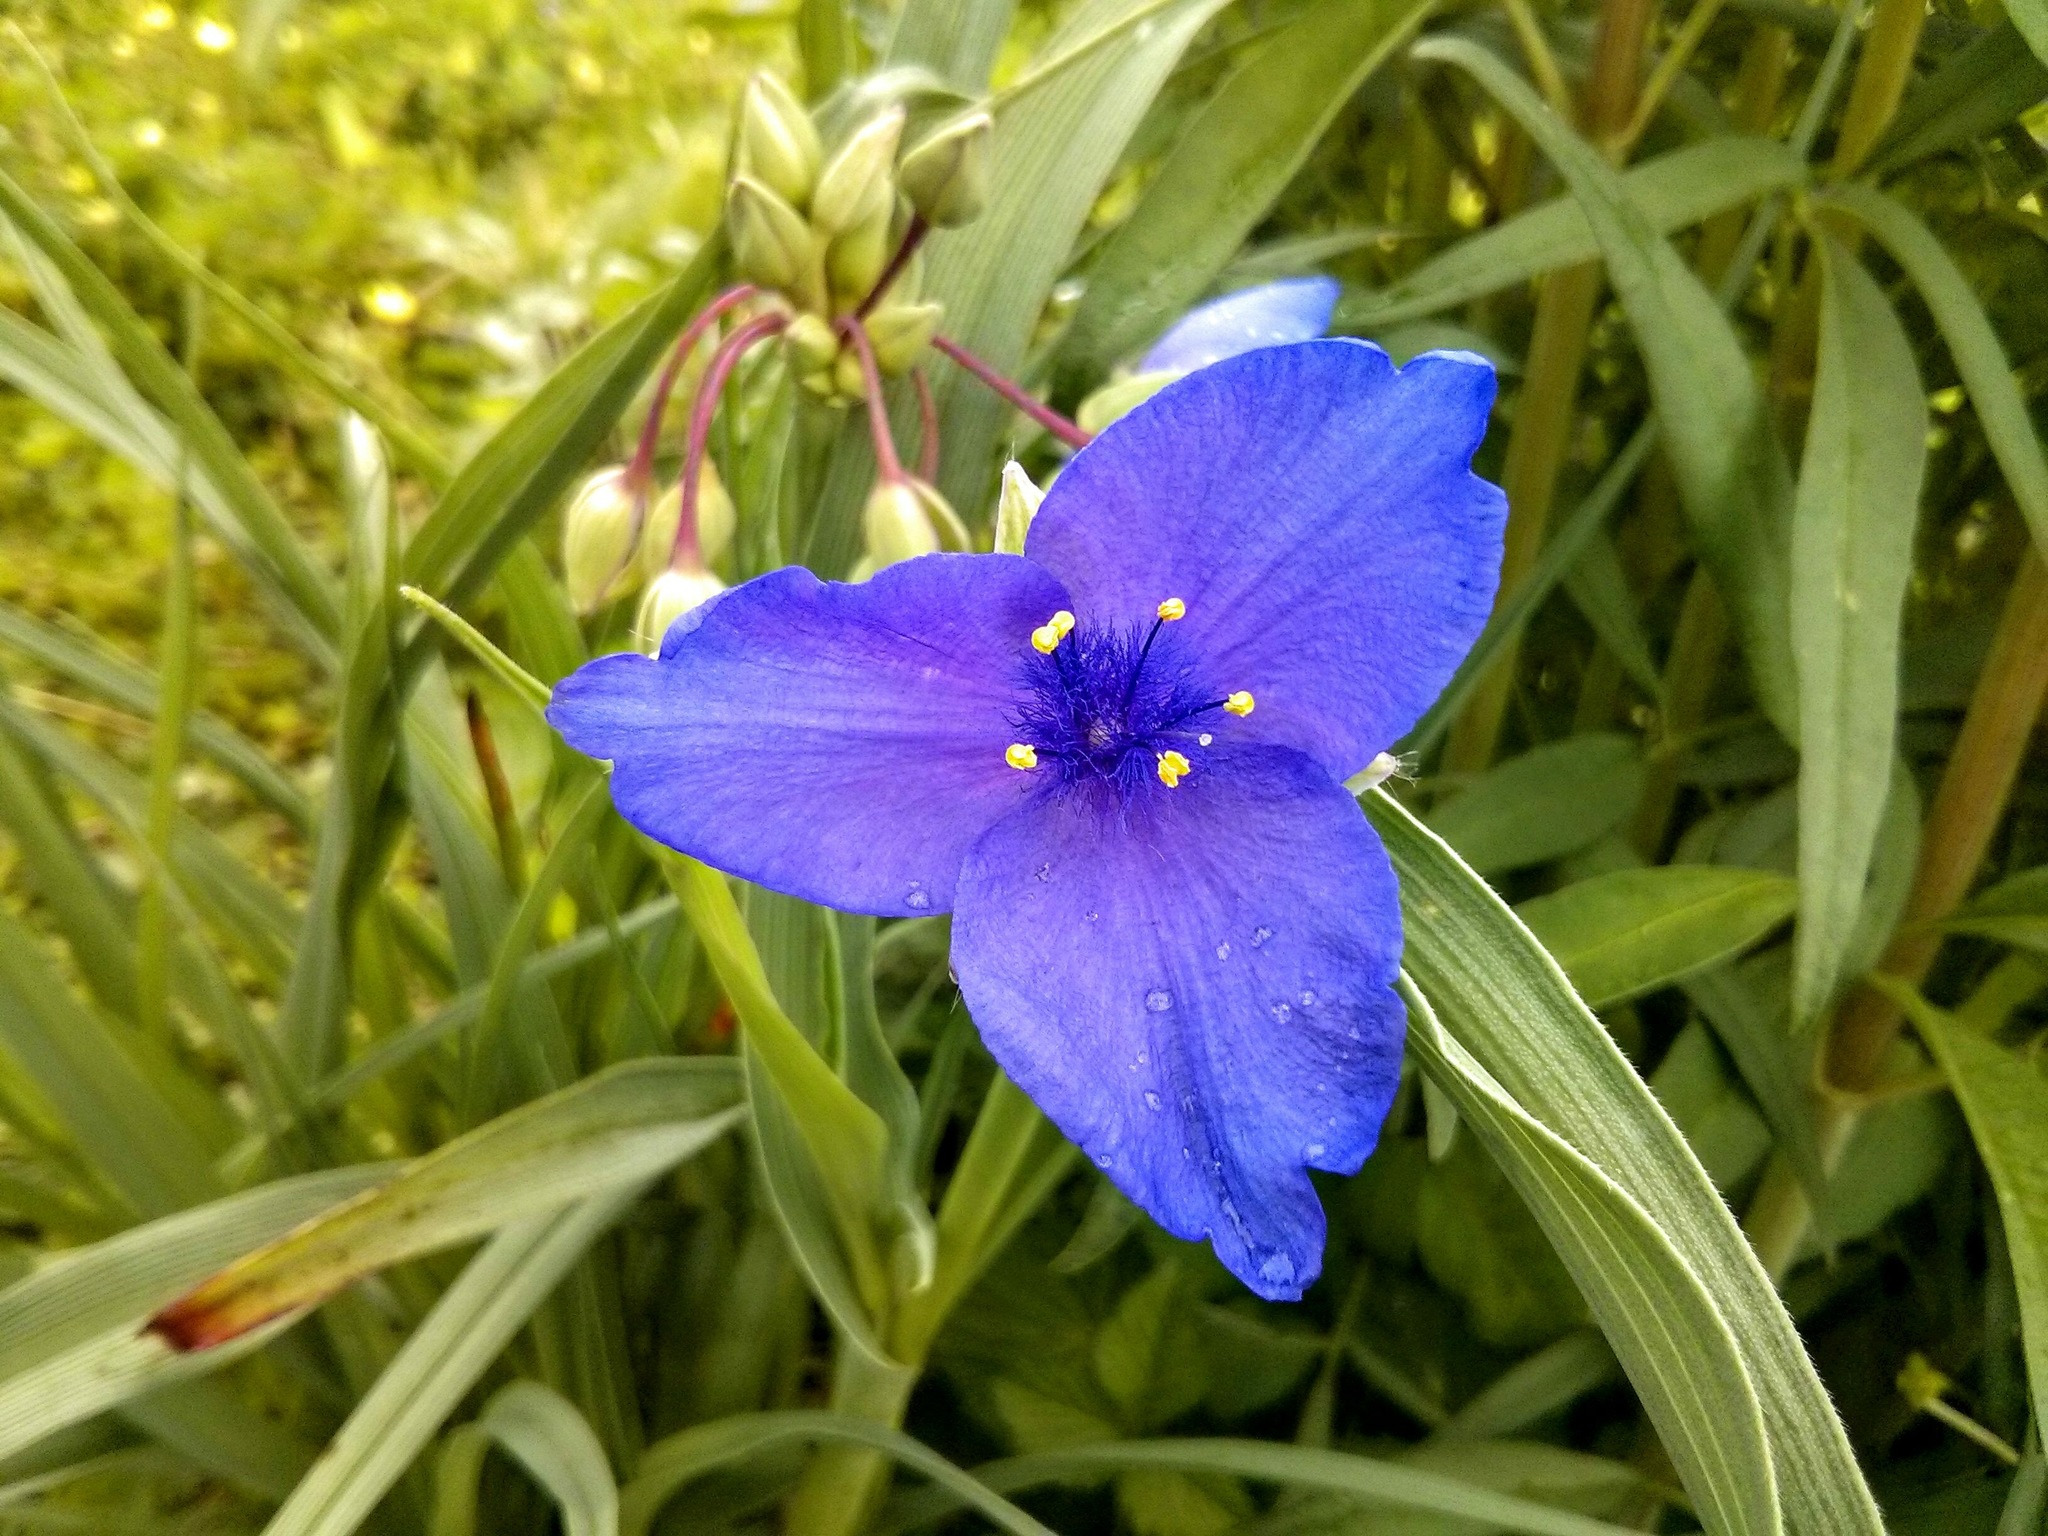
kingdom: Plantae
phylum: Tracheophyta
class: Liliopsida
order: Commelinales
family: Commelinaceae
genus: Tradescantia
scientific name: Tradescantia ohiensis
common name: Ohio spiderwort
